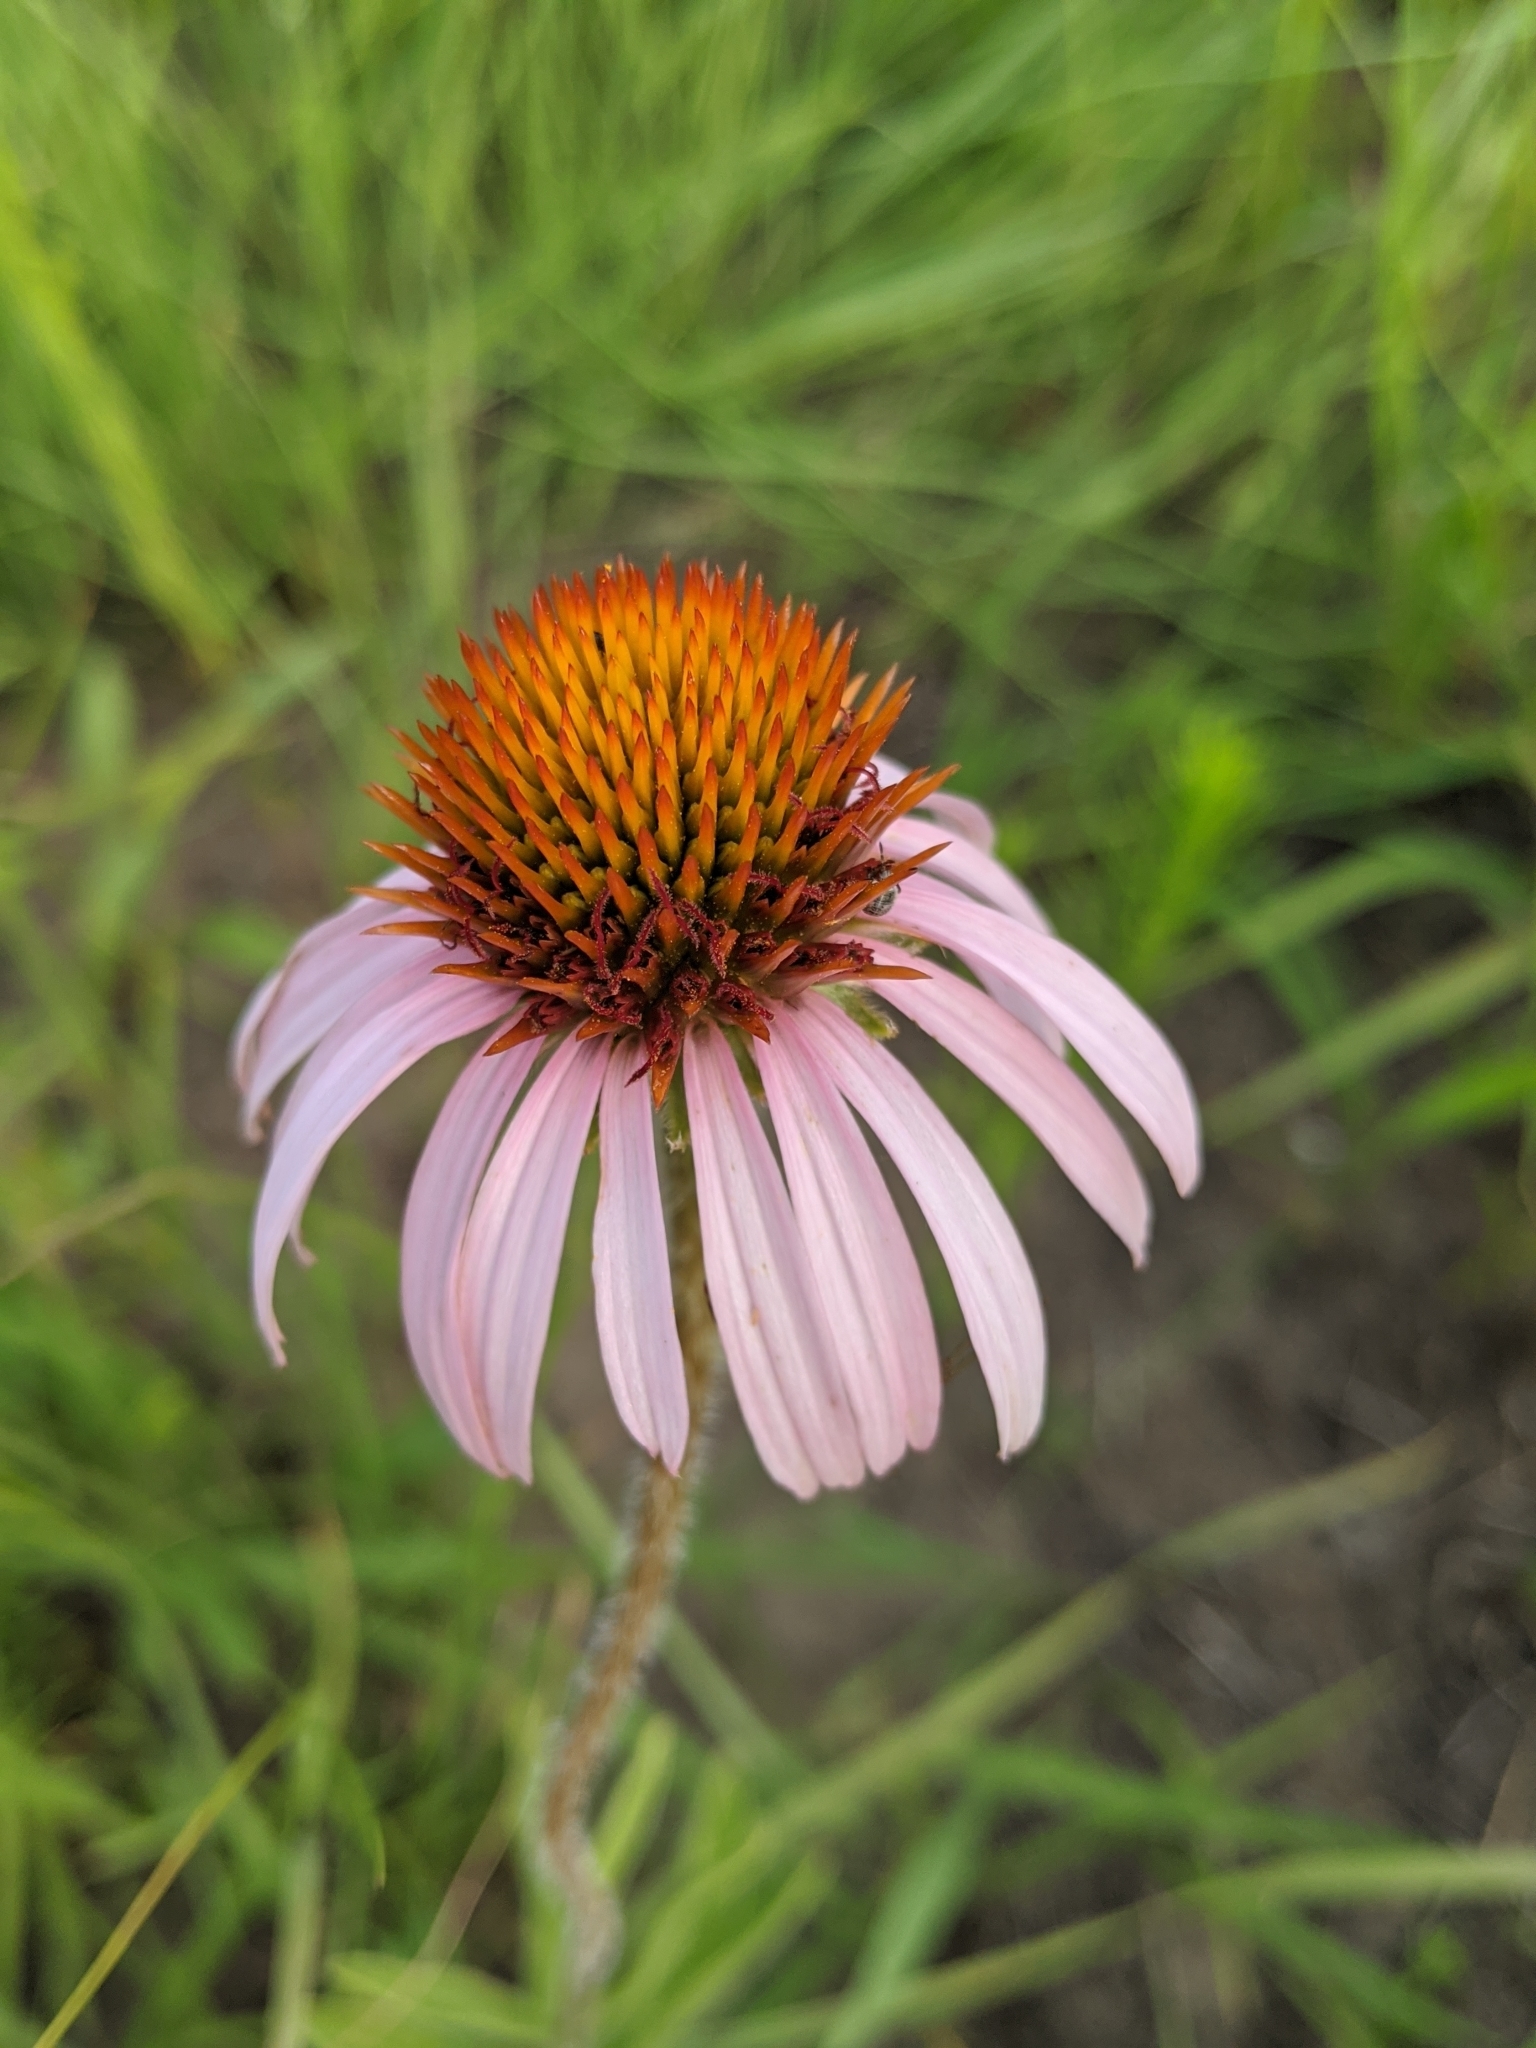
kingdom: Plantae
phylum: Tracheophyta
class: Magnoliopsida
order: Asterales
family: Asteraceae
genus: Echinacea
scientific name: Echinacea angustifolia
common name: Black-sampson echinacea
